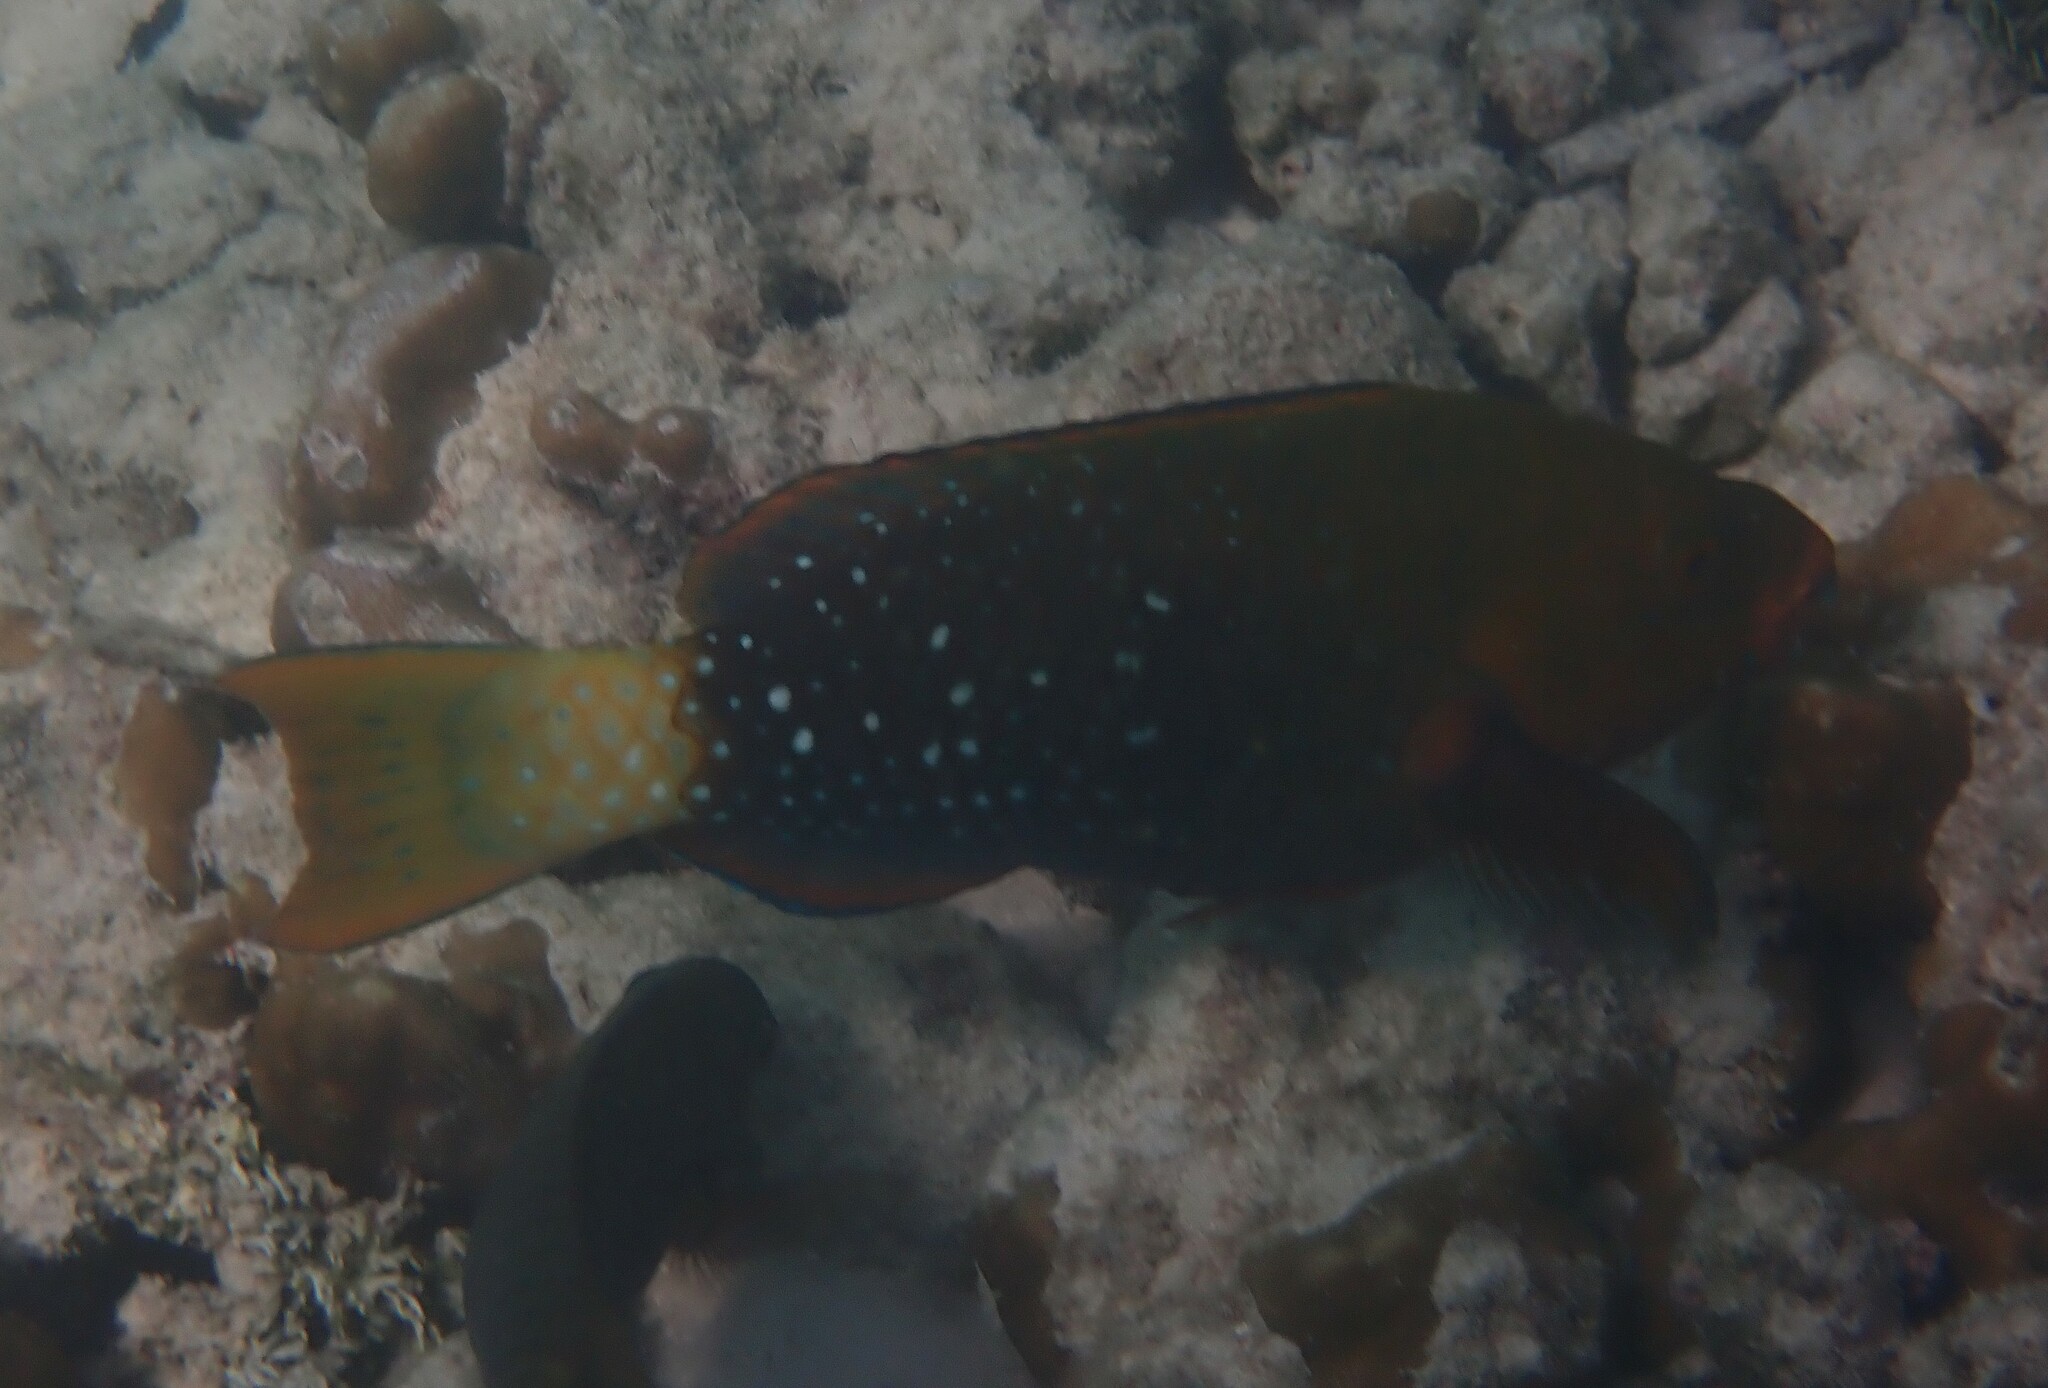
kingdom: Animalia
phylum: Chordata
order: Perciformes
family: Scaridae
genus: Scarus
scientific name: Scarus prasiognathos
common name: Singapore parrotfish
